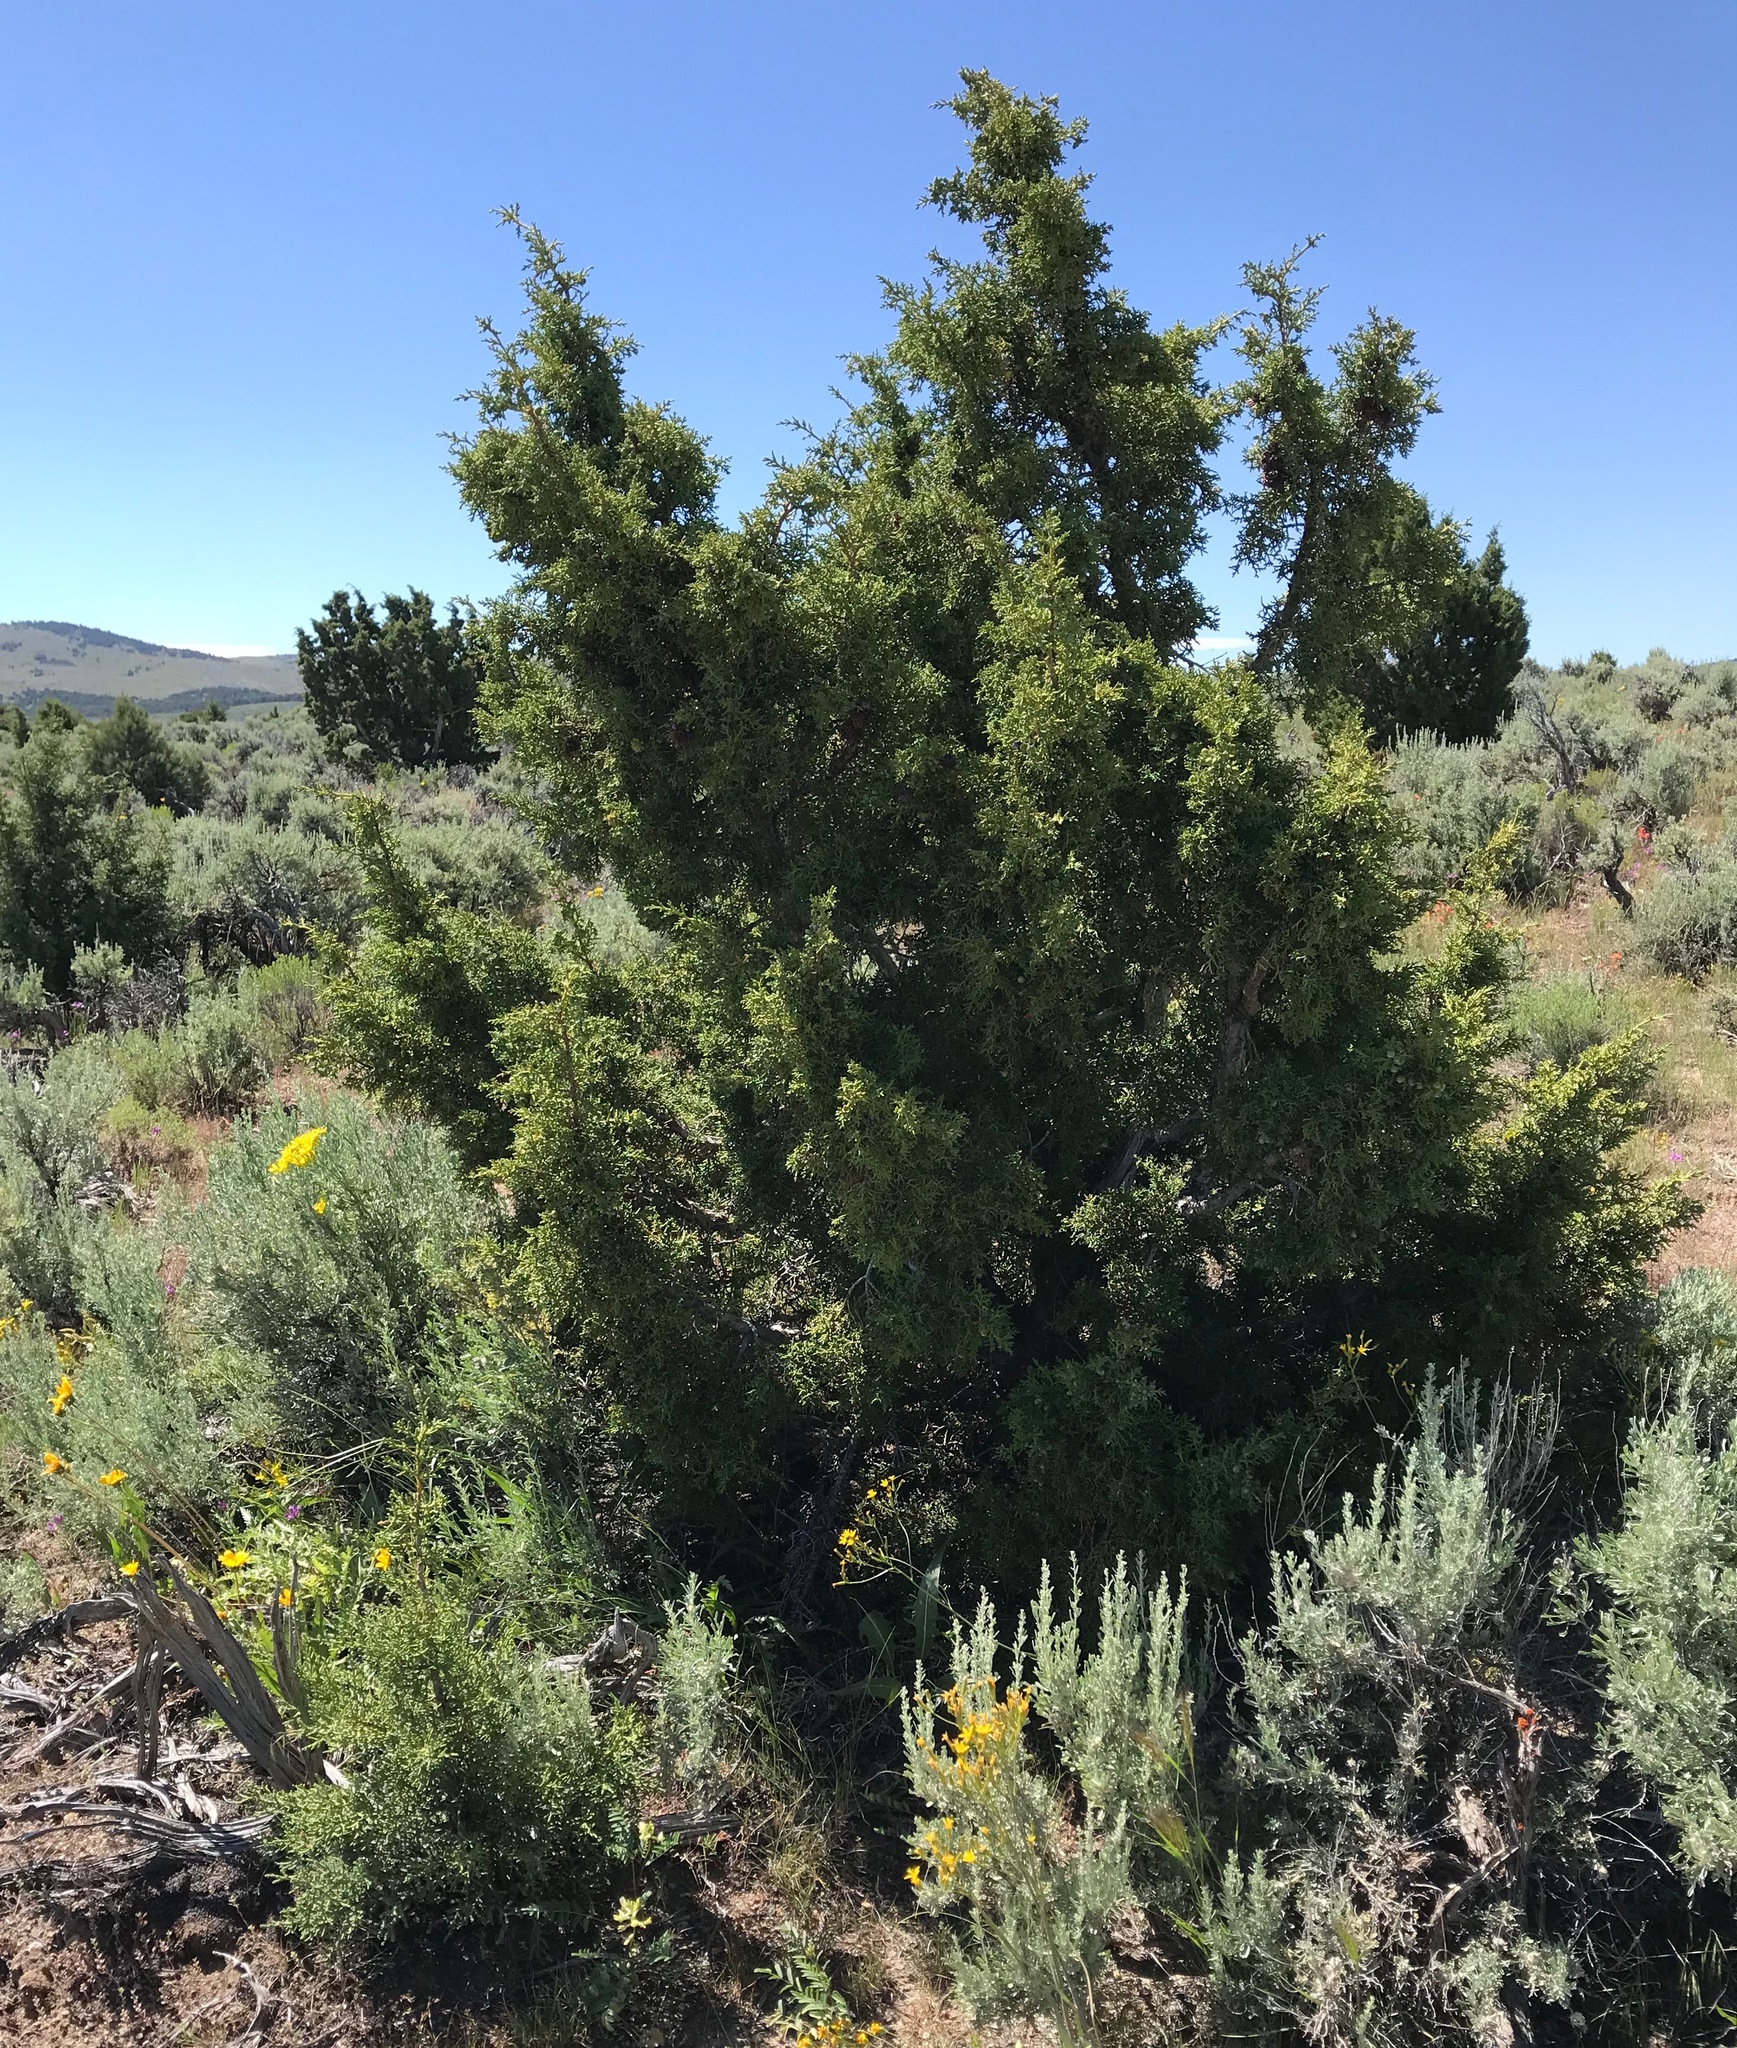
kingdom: Plantae
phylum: Tracheophyta
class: Pinopsida
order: Pinales
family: Cupressaceae
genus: Juniperus
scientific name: Juniperus osteosperma
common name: Utah juniper
